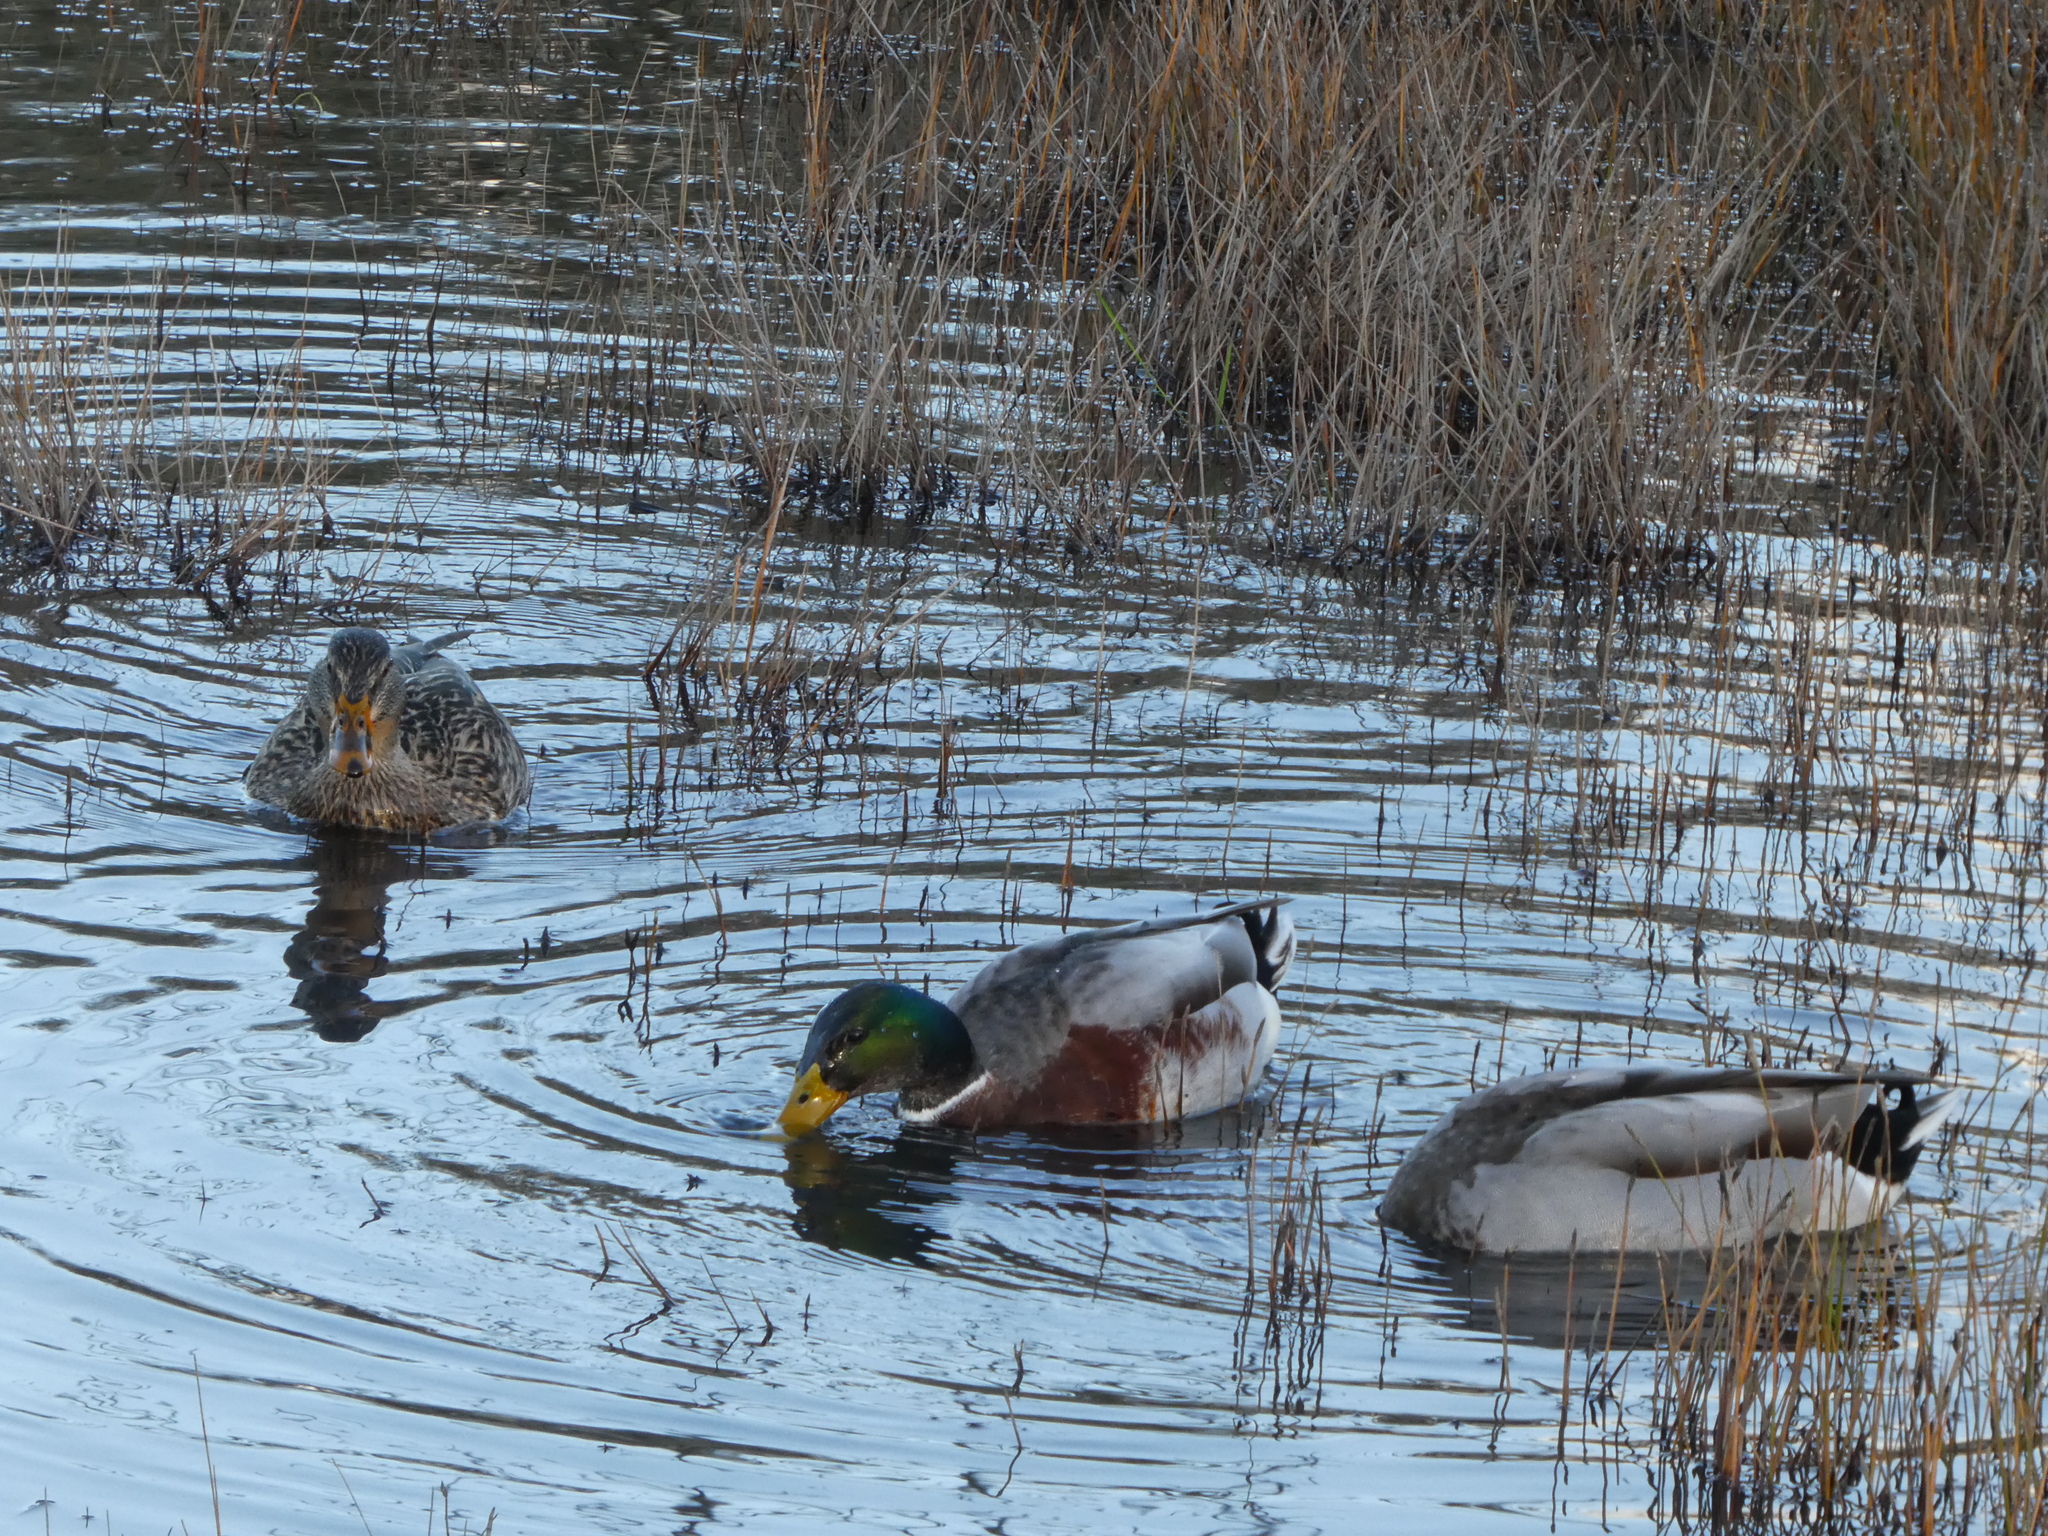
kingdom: Animalia
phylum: Chordata
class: Aves
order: Anseriformes
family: Anatidae
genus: Anas
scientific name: Anas platyrhynchos
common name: Mallard
